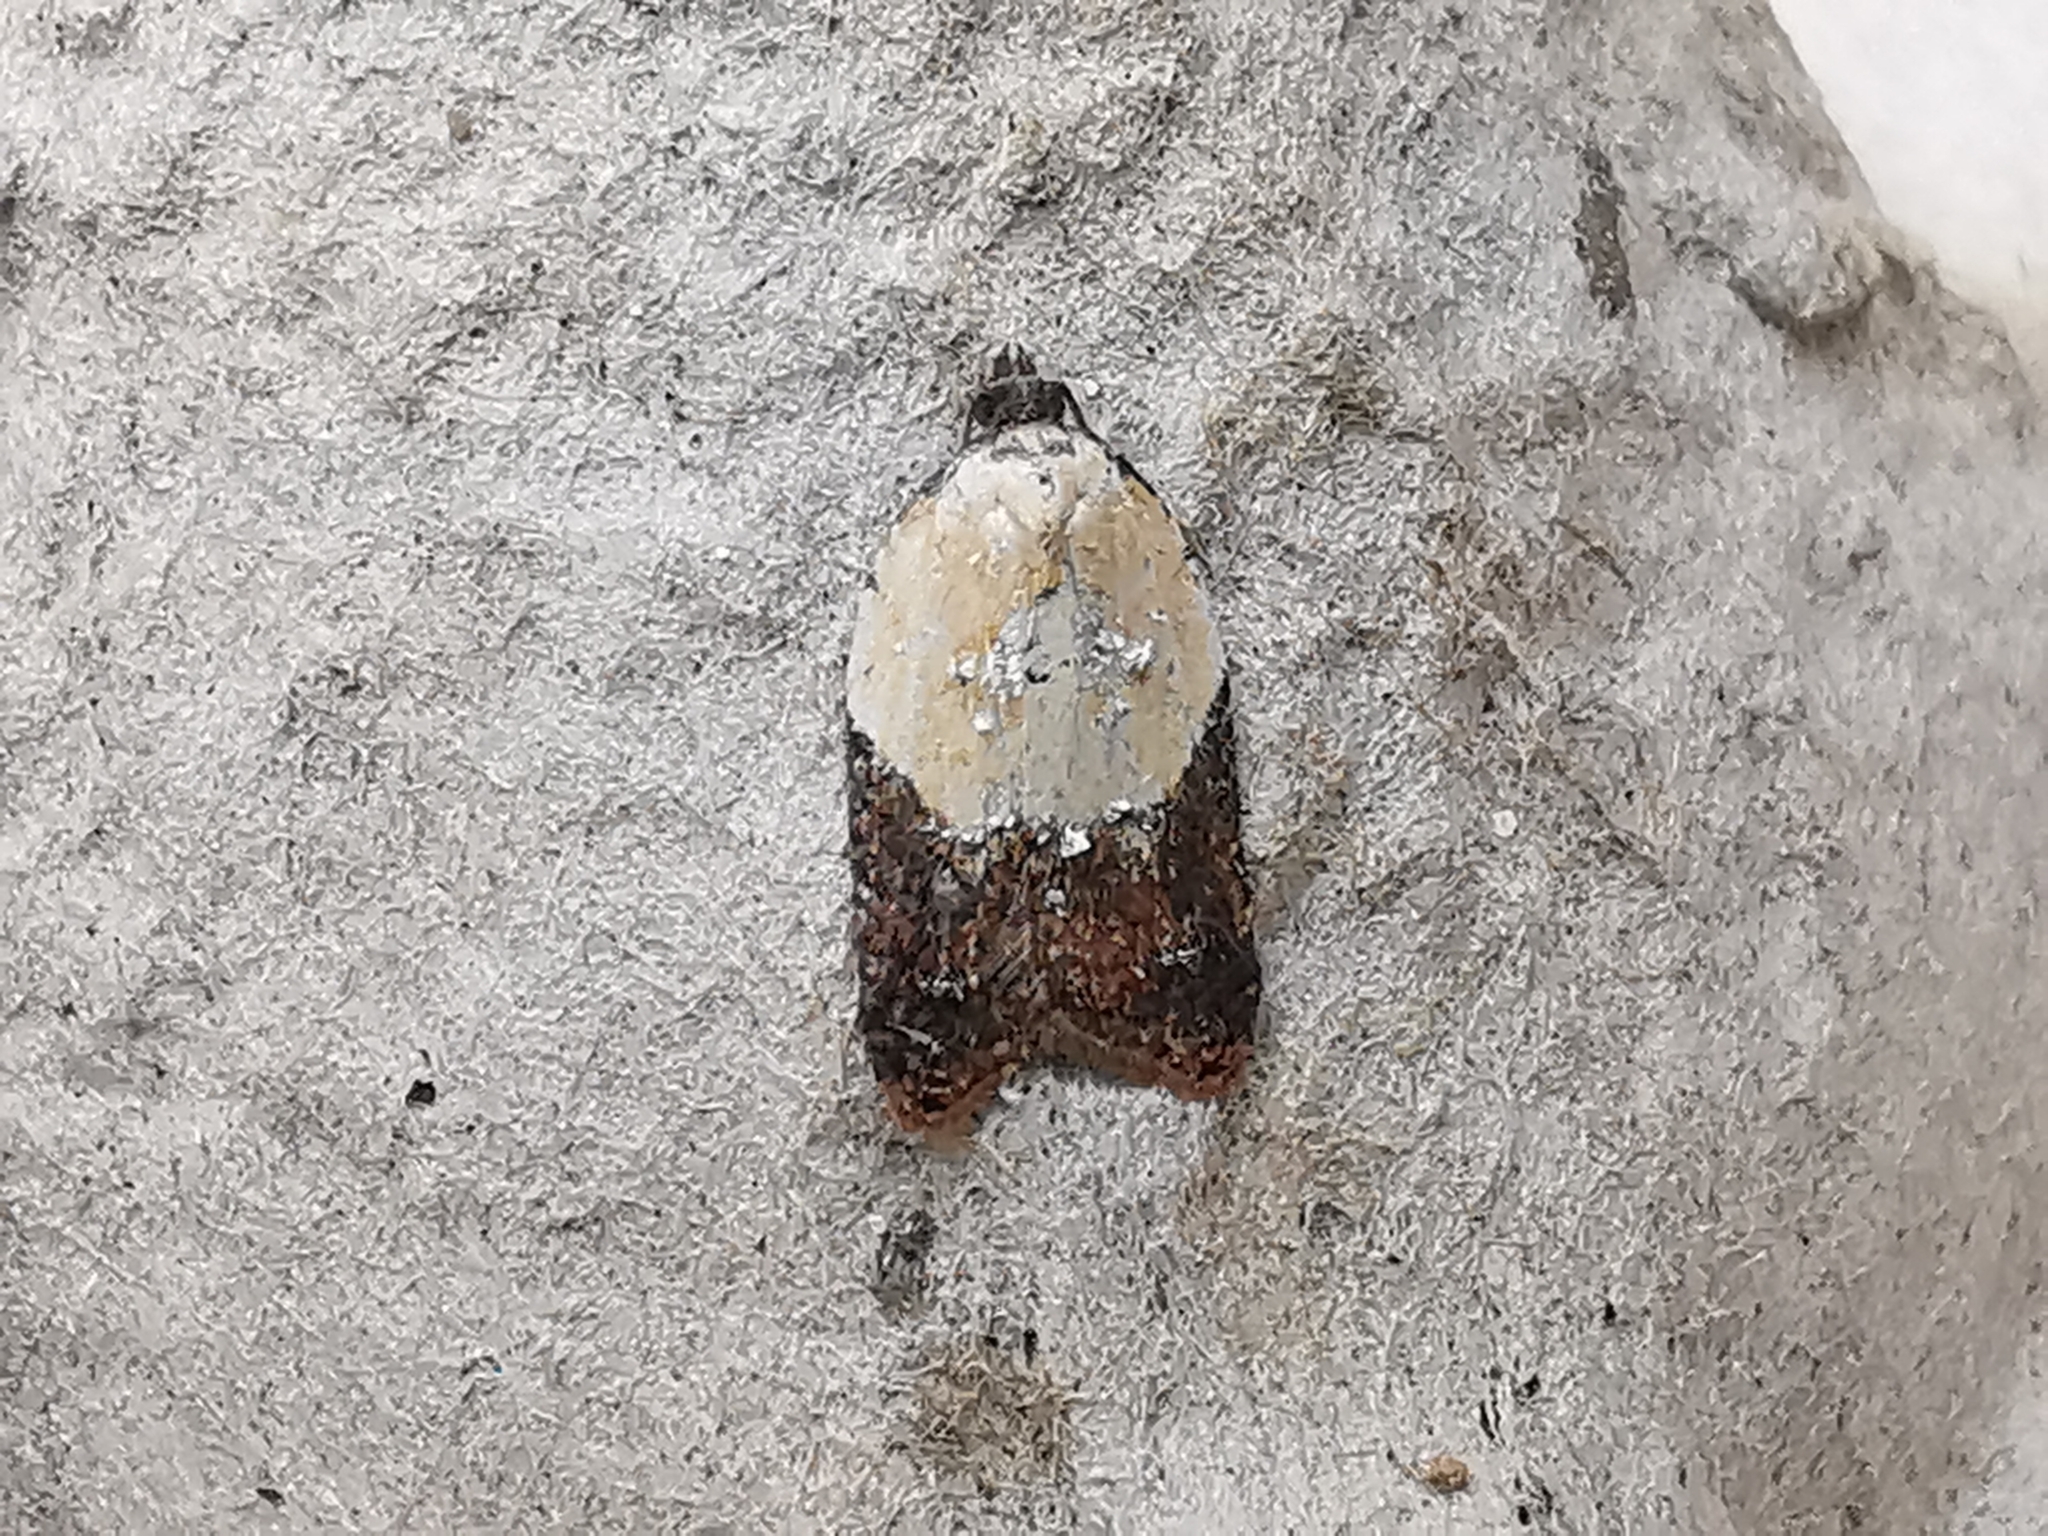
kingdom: Animalia
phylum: Arthropoda
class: Insecta
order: Lepidoptera
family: Tortricidae
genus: Acleris
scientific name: Acleris variegana
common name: Garden rose tortrix
